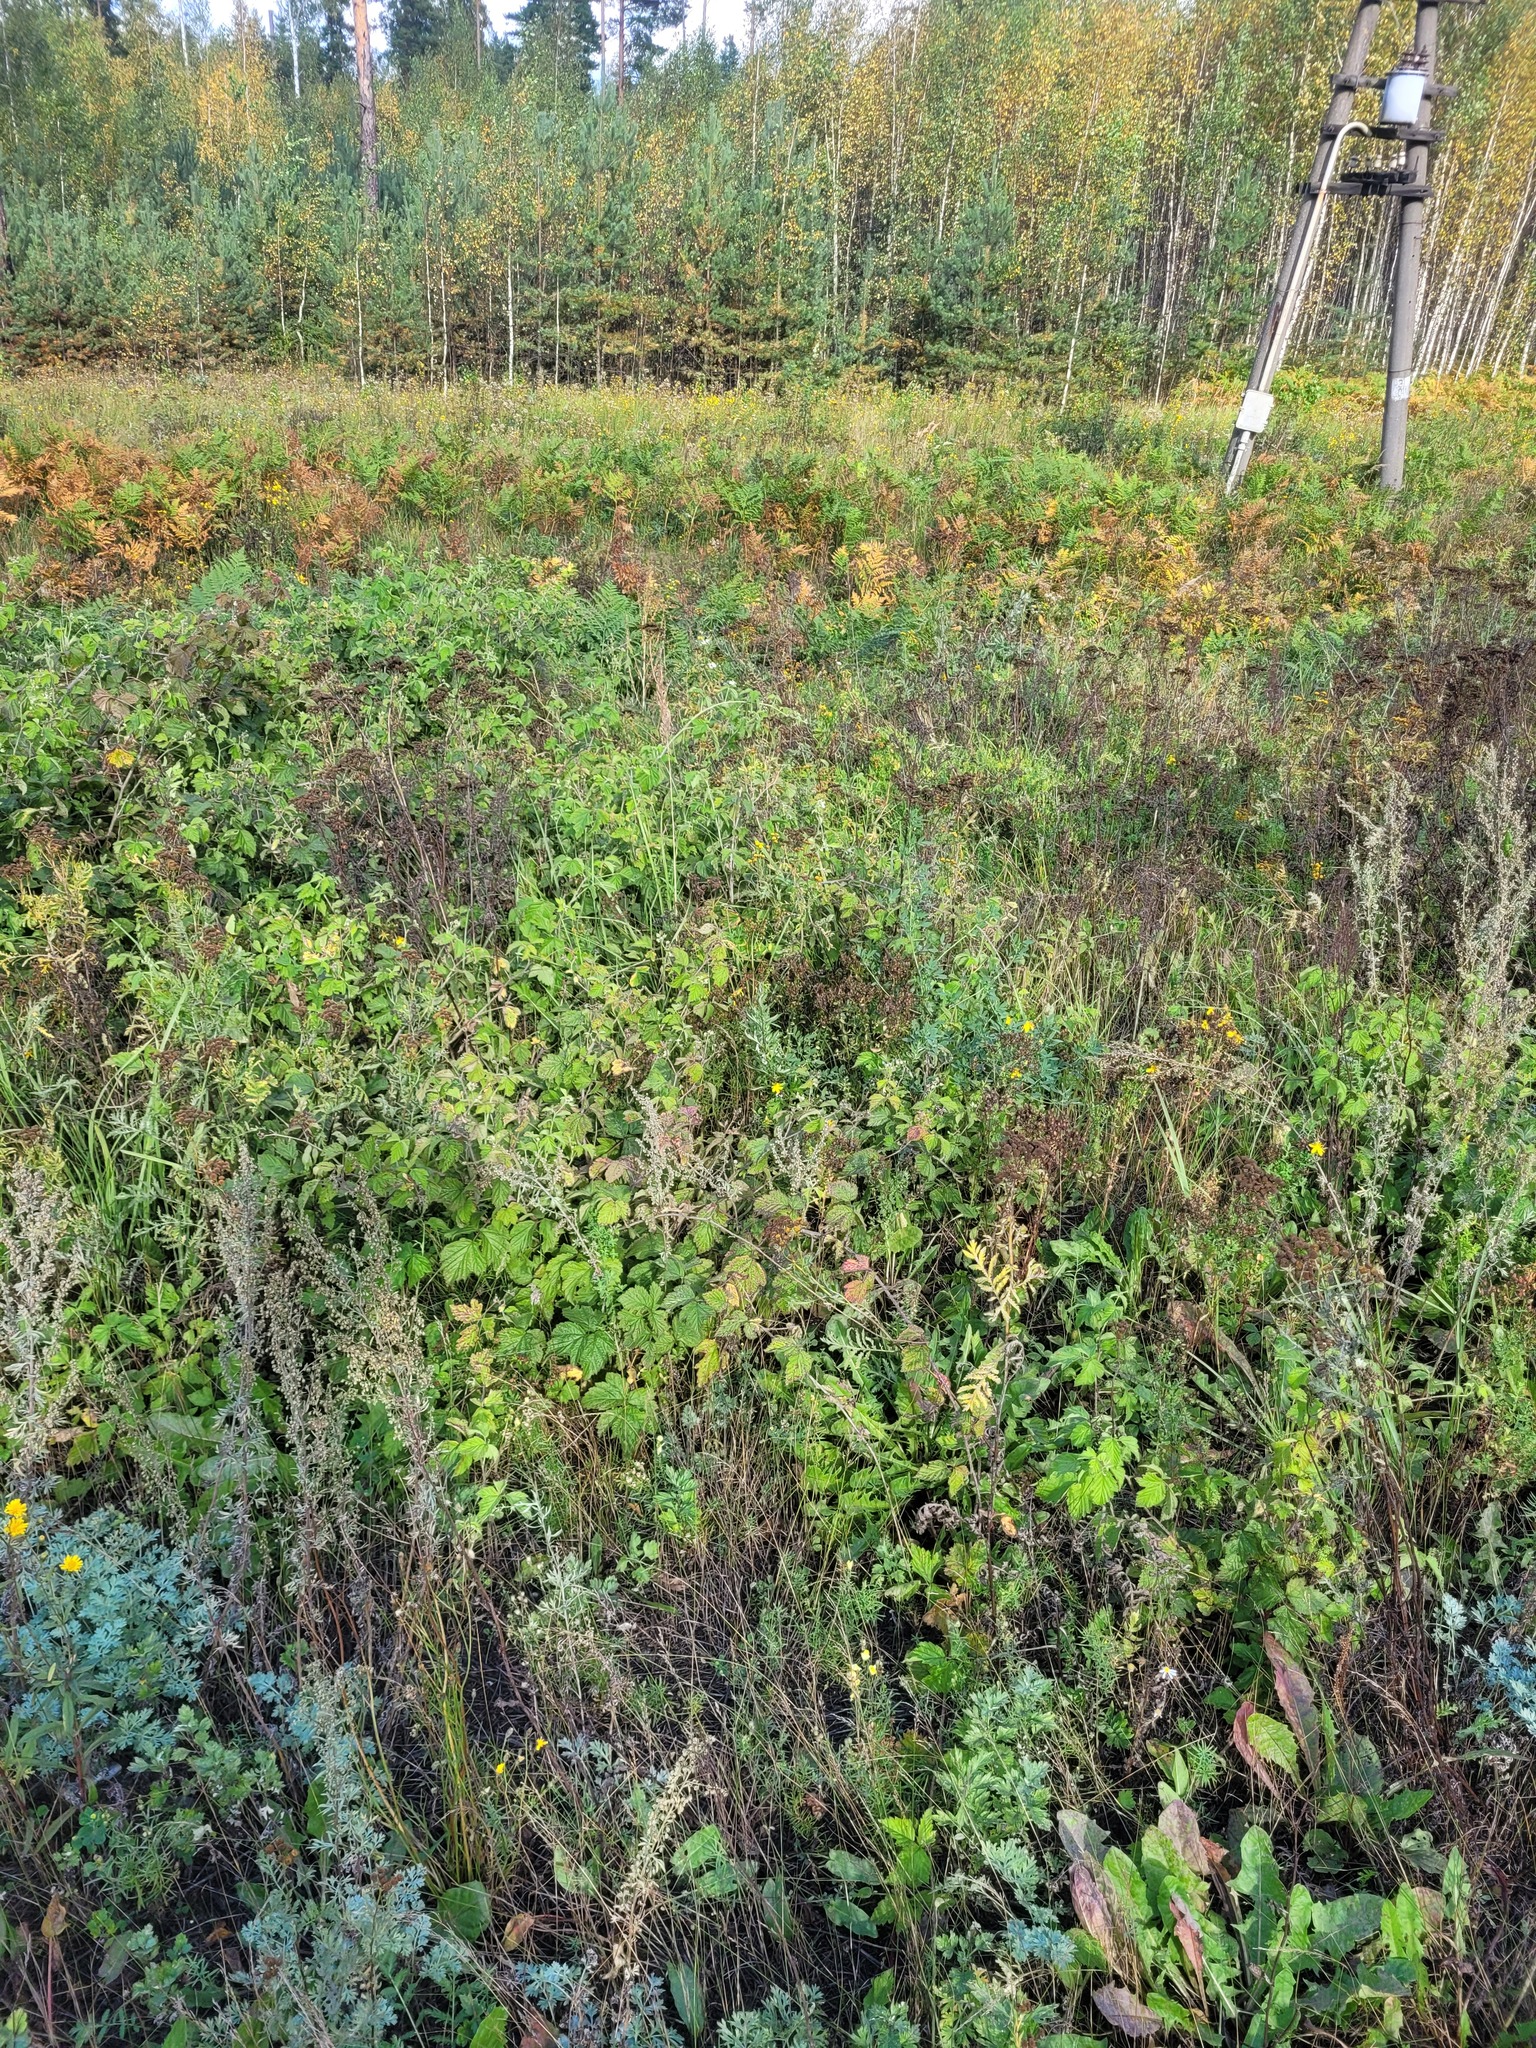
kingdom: Plantae
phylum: Tracheophyta
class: Magnoliopsida
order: Rosales
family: Rosaceae
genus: Rubus
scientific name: Rubus caesius
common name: Dewberry
